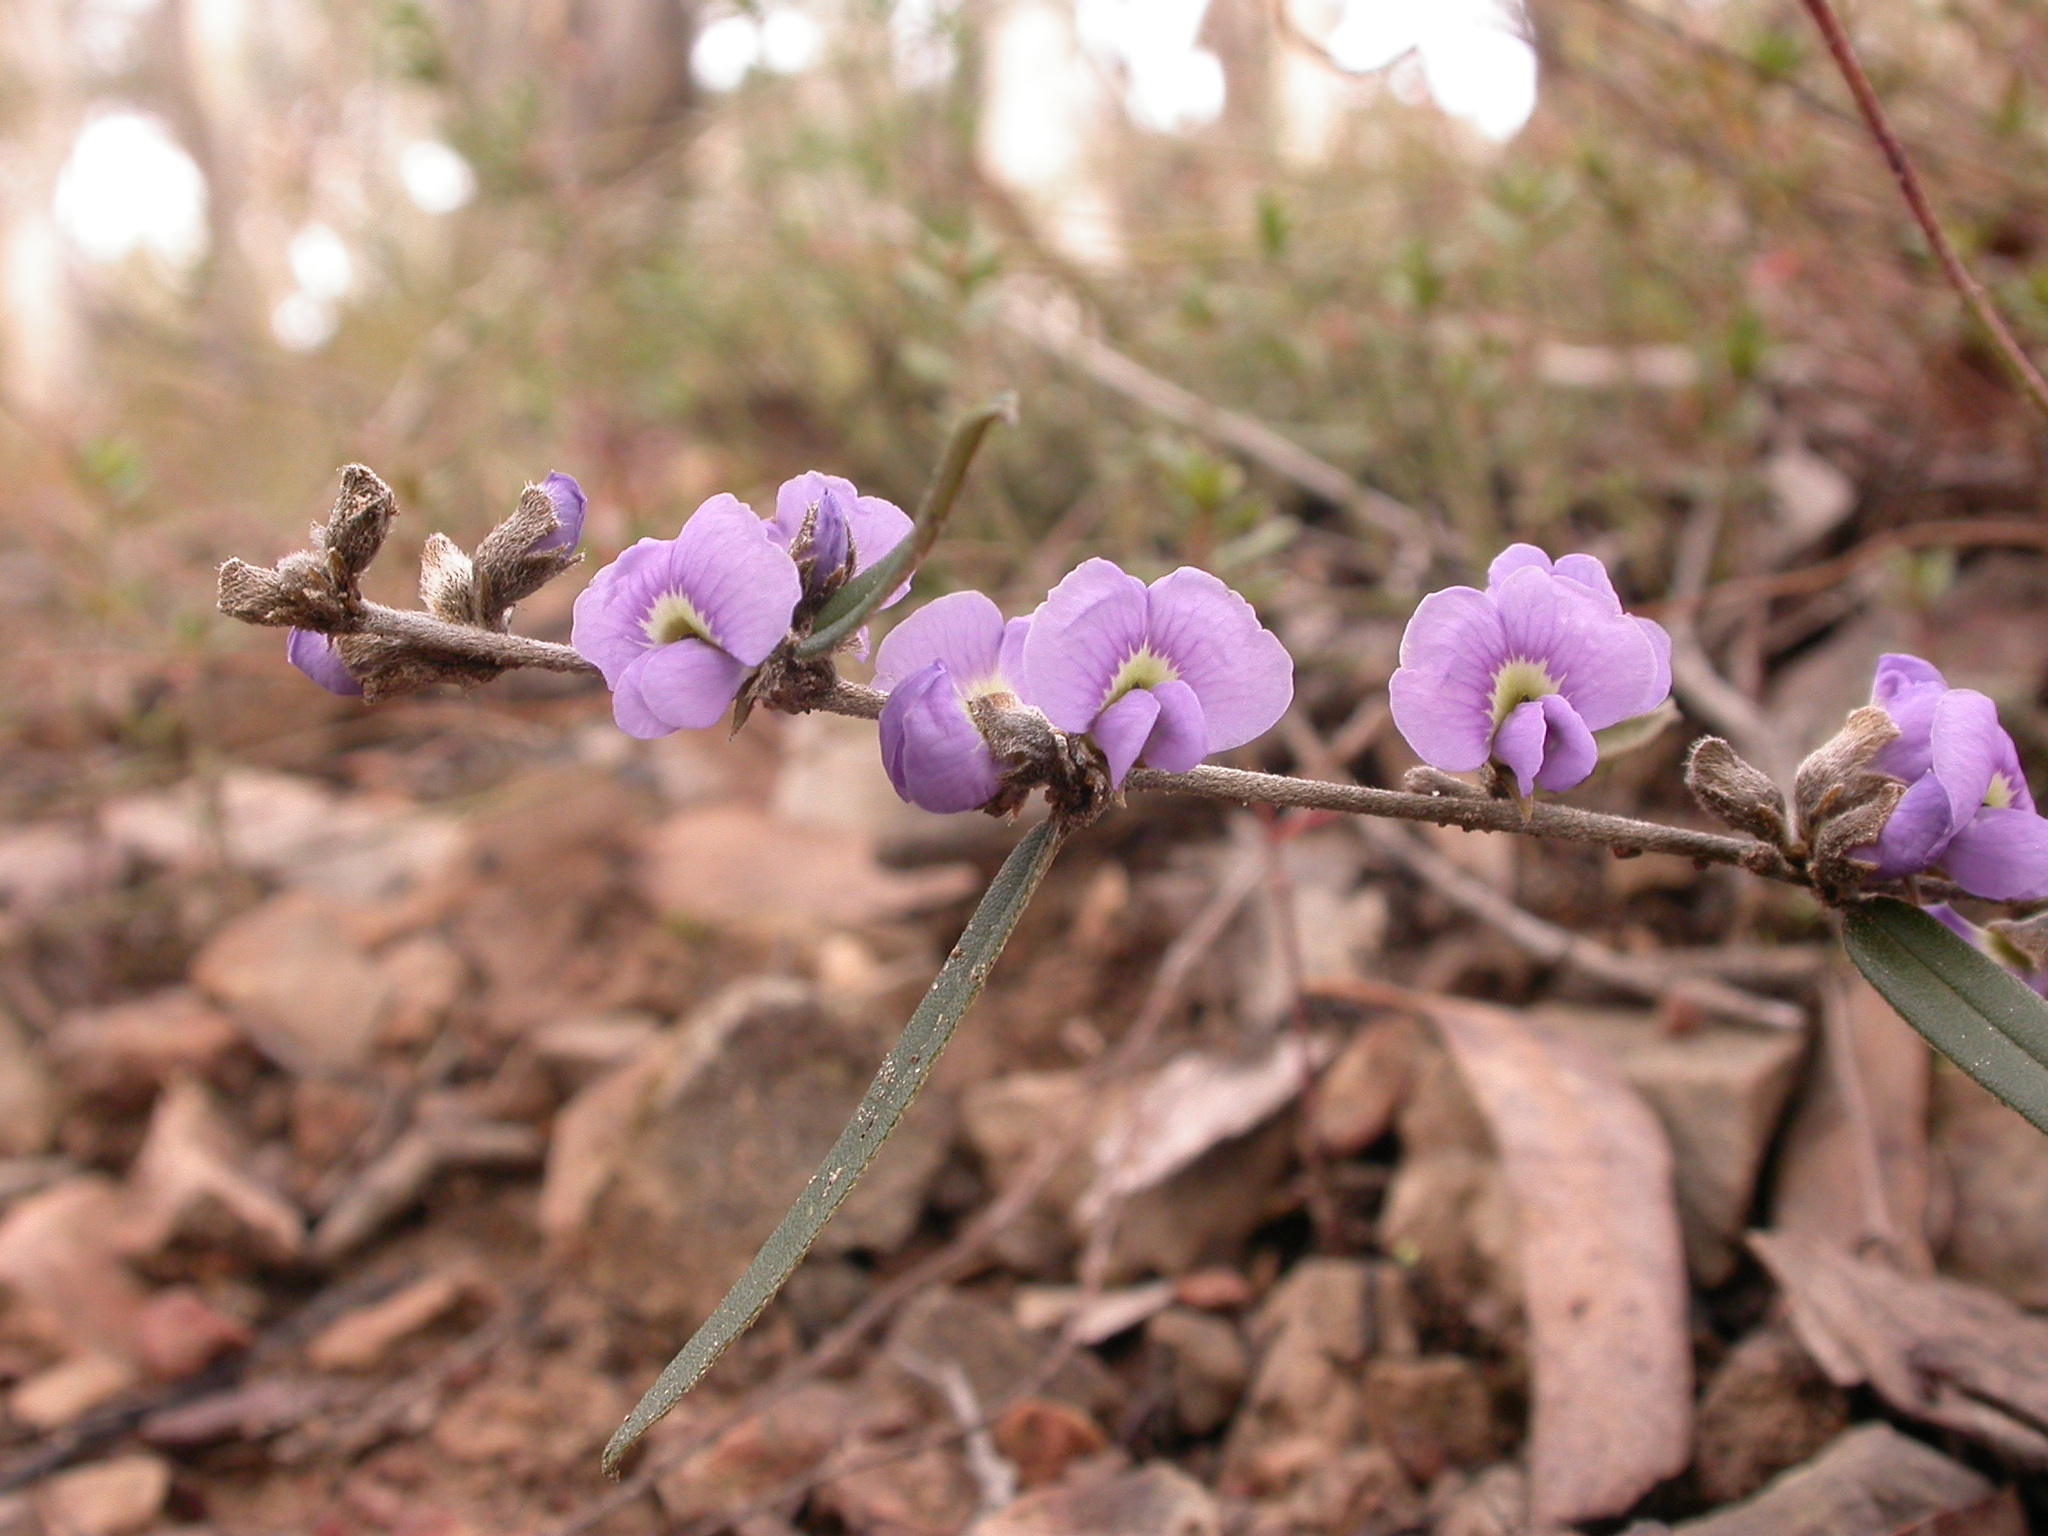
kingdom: Plantae
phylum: Tracheophyta
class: Magnoliopsida
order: Fabales
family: Fabaceae
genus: Hovea
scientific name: Hovea heterophylla
